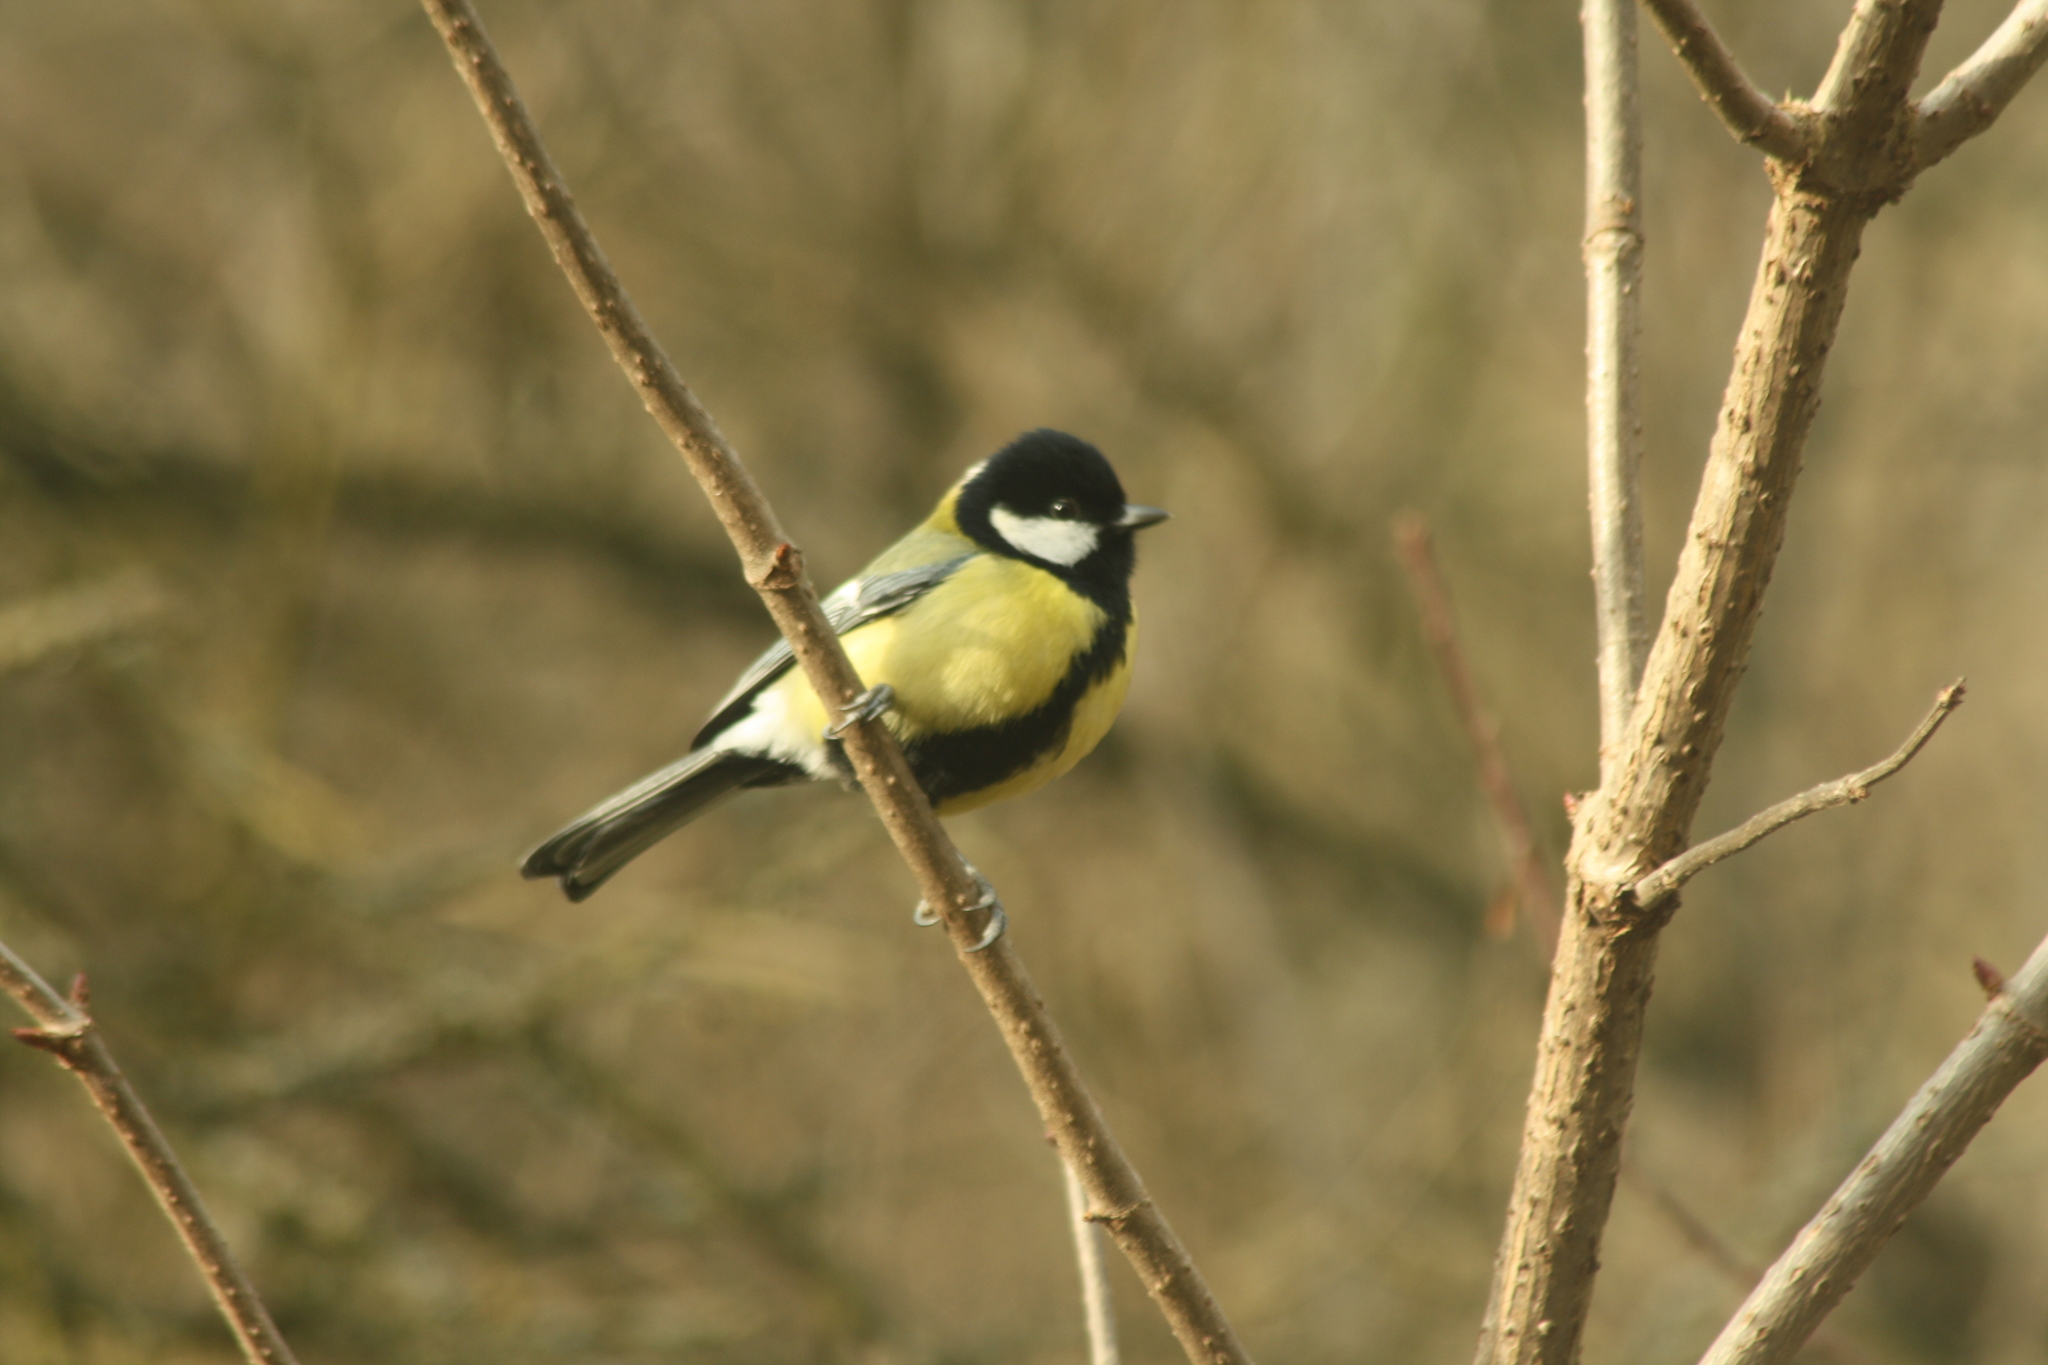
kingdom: Animalia
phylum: Chordata
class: Aves
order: Passeriformes
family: Paridae
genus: Parus
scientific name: Parus major
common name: Great tit
